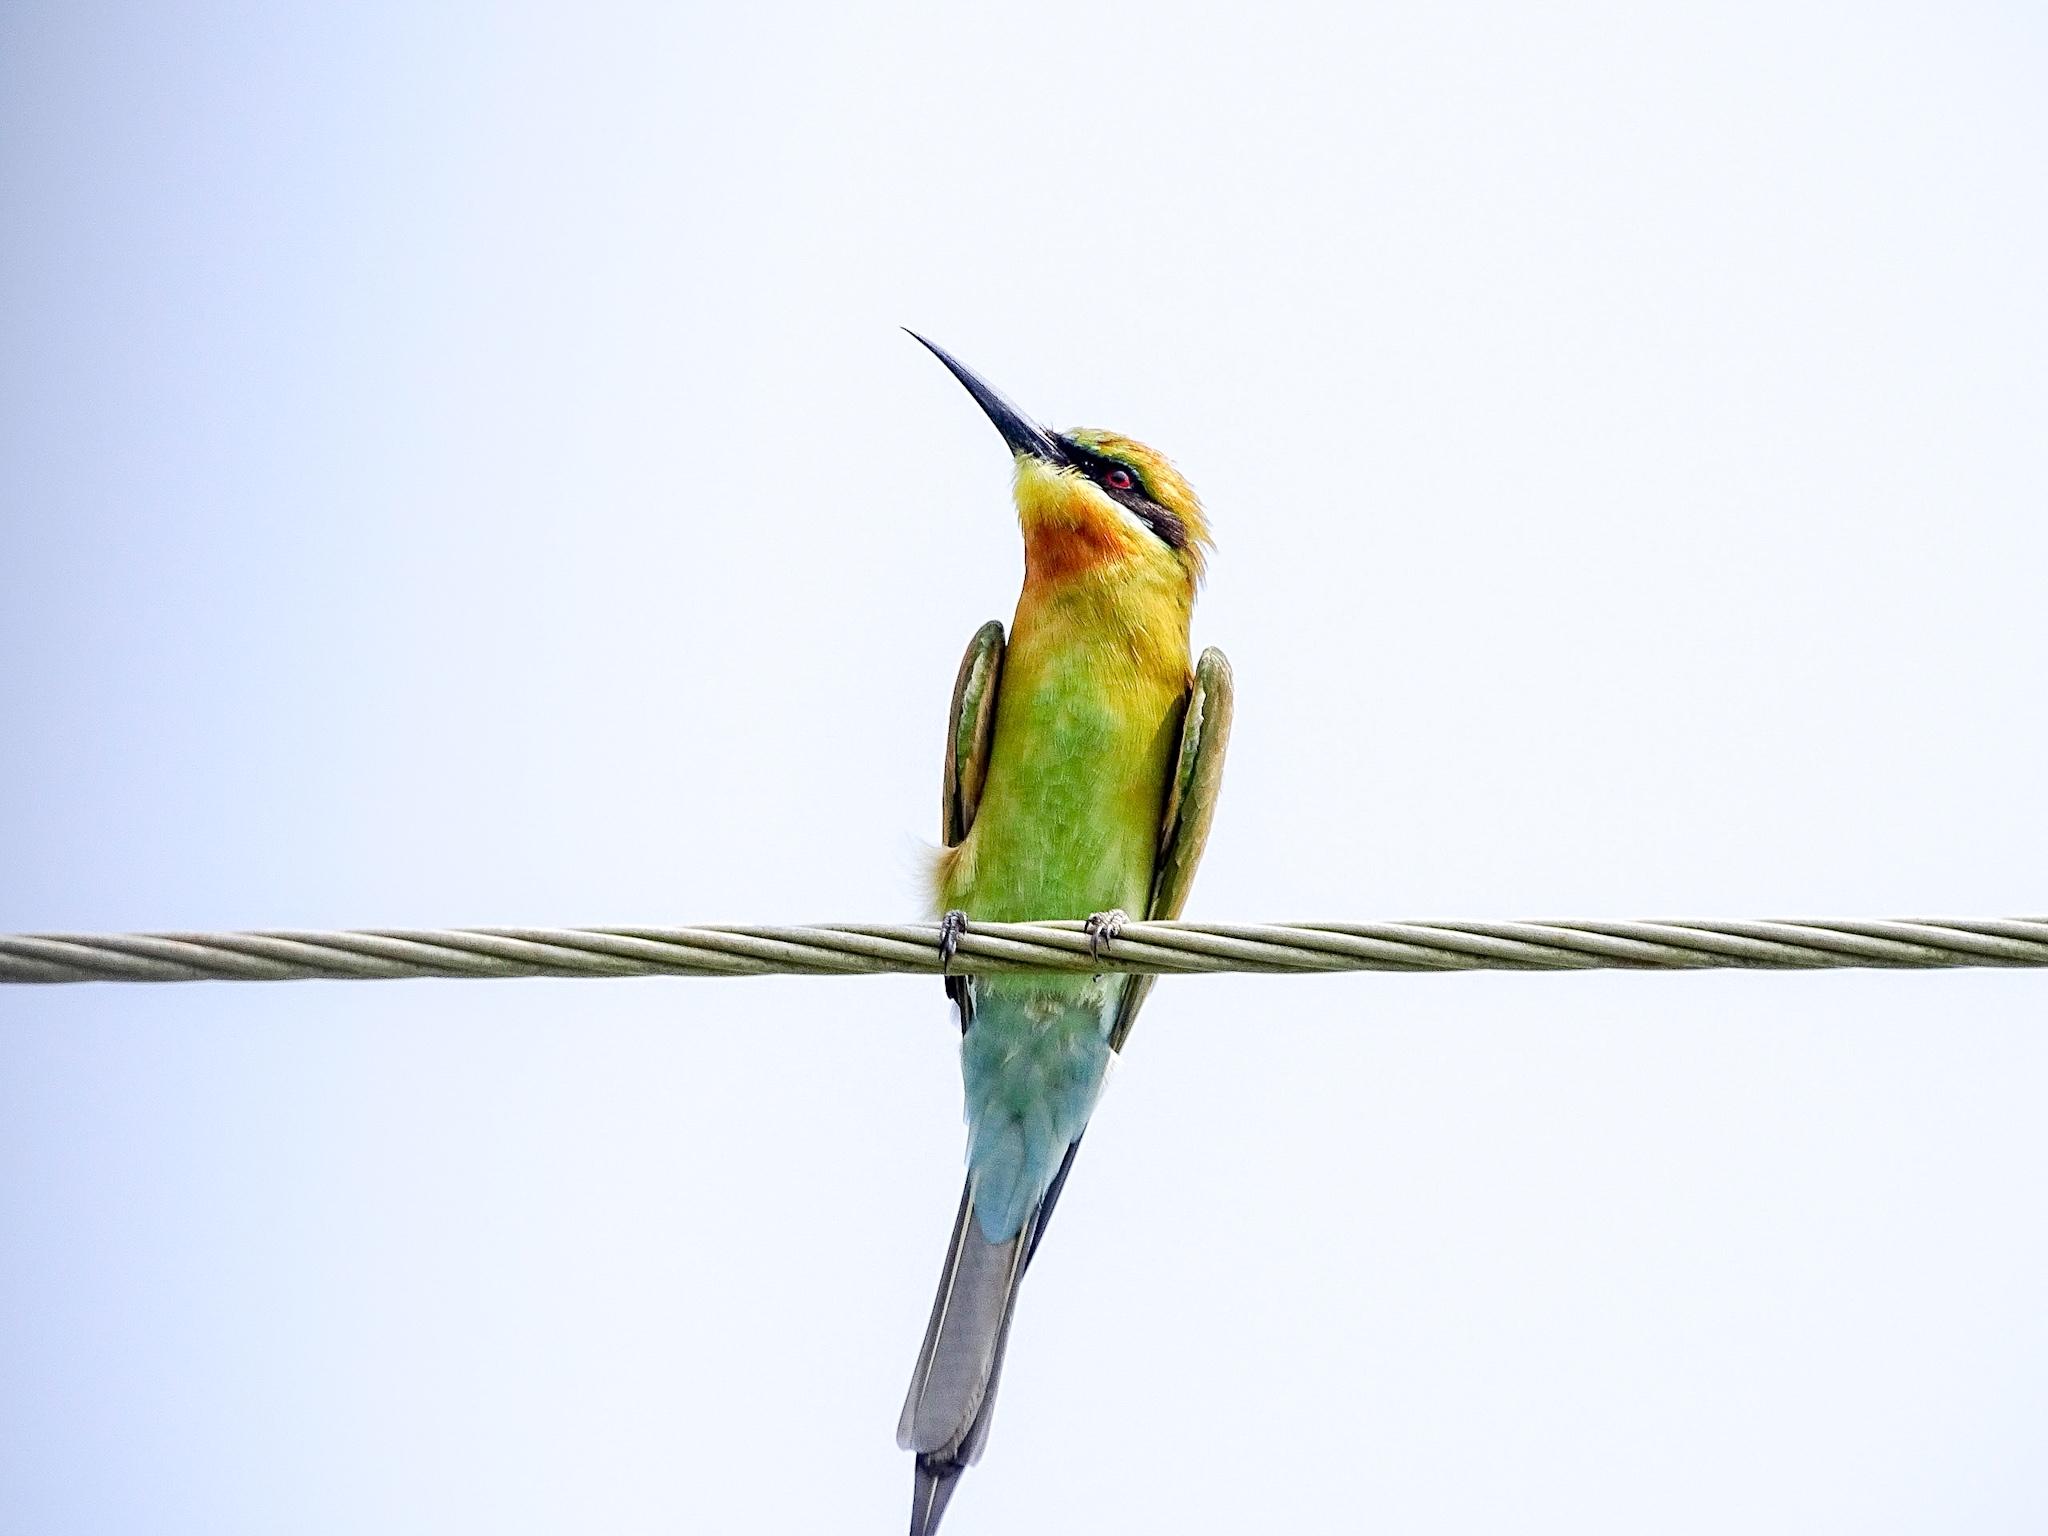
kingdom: Animalia
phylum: Chordata
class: Aves
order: Coraciiformes
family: Meropidae
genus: Merops
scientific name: Merops philippinus
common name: Blue-tailed bee-eater
